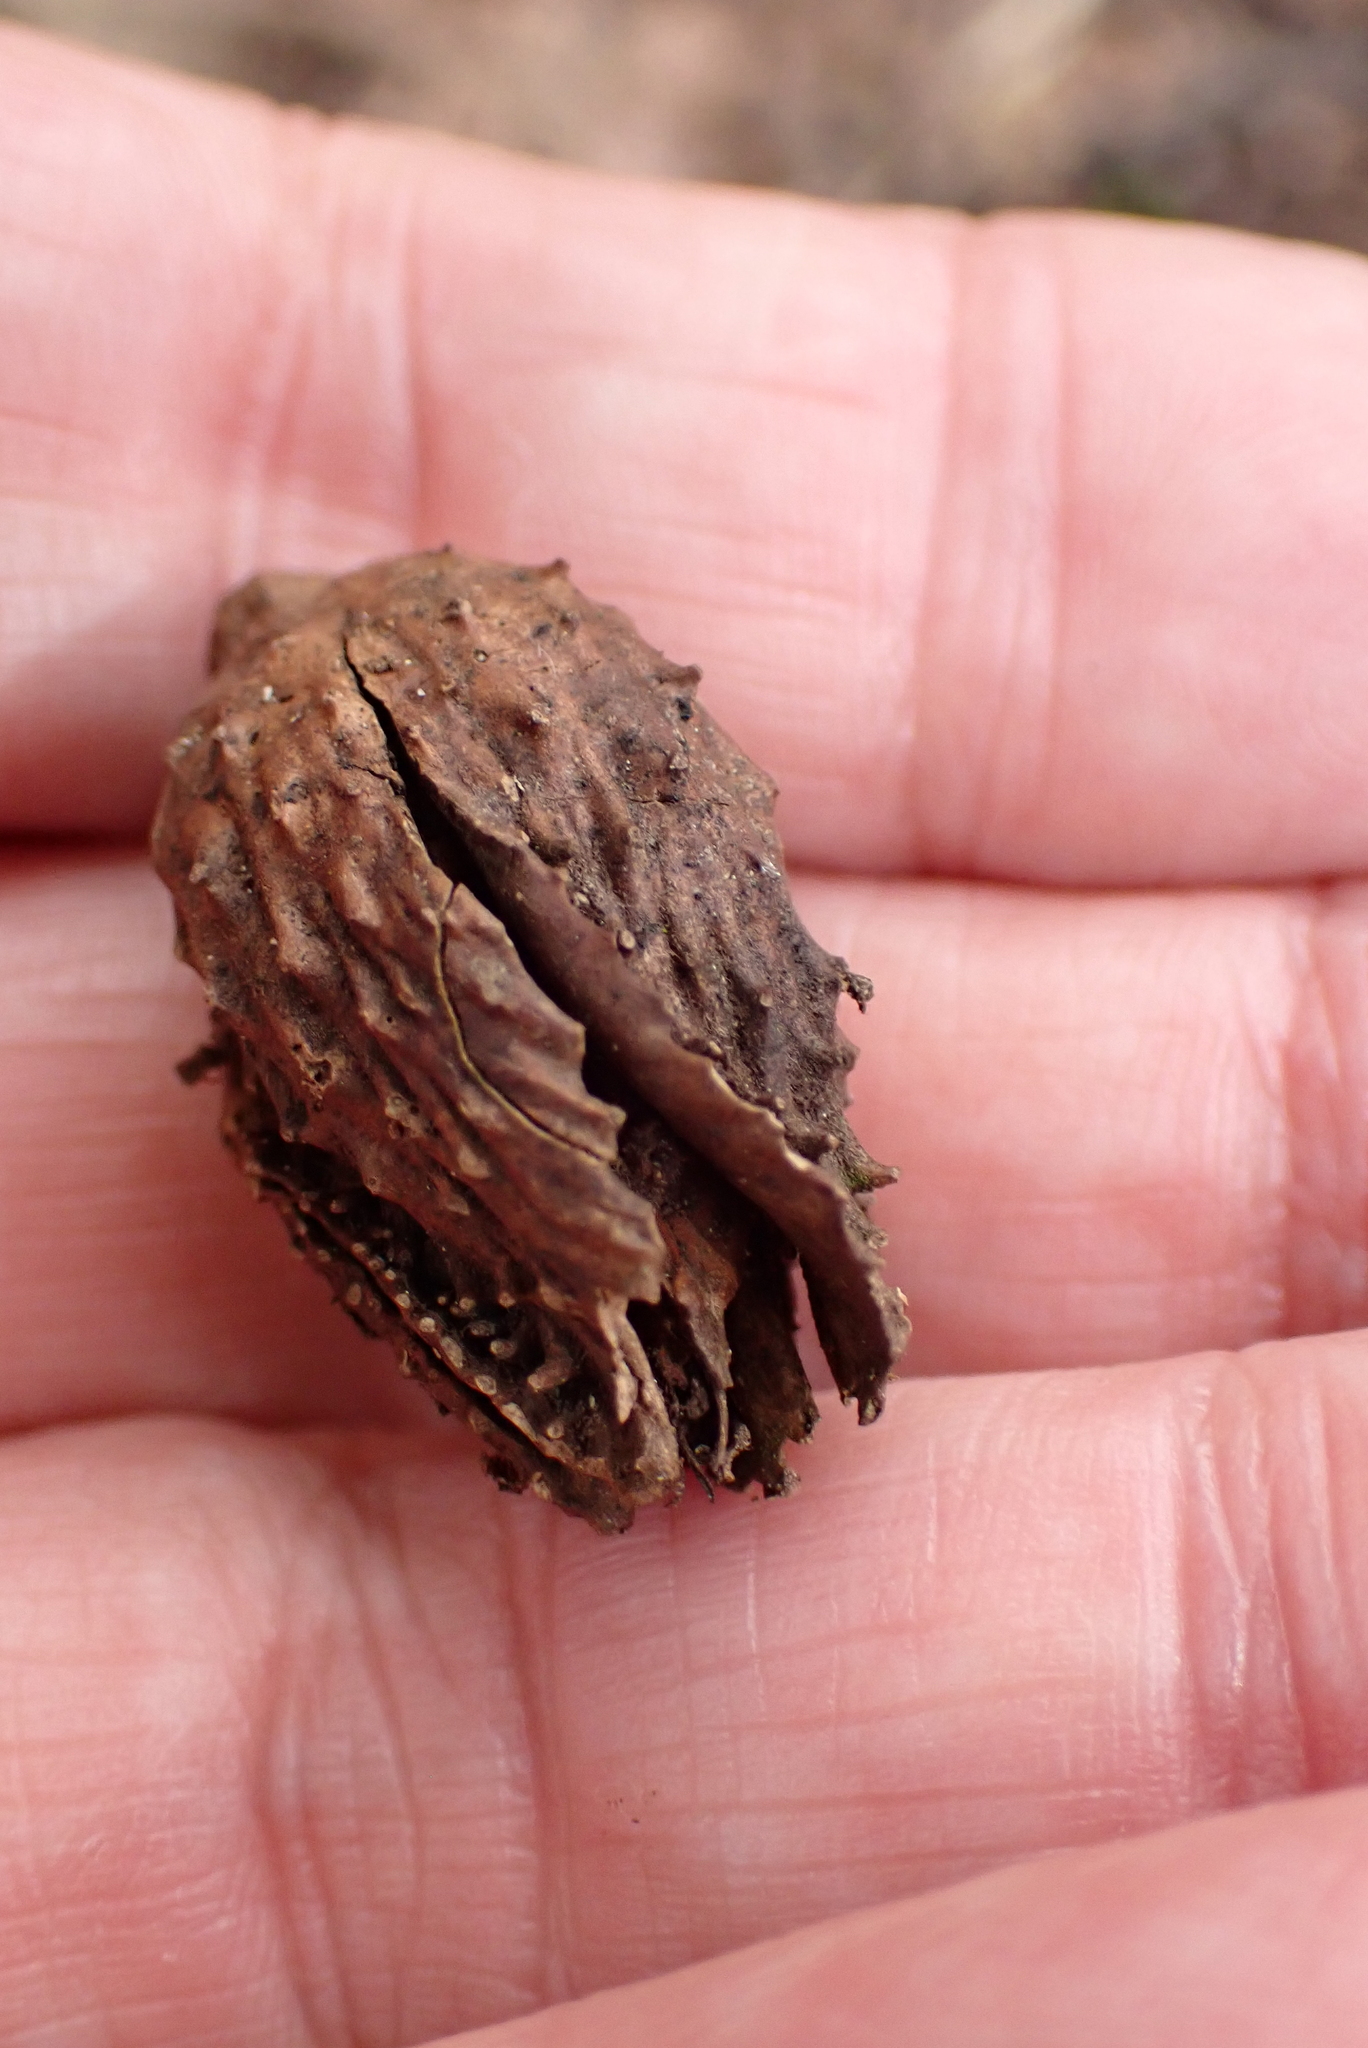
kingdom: Plantae
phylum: Tracheophyta
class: Magnoliopsida
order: Fagales
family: Fagaceae
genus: Fagus
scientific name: Fagus sylvatica
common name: Beech
